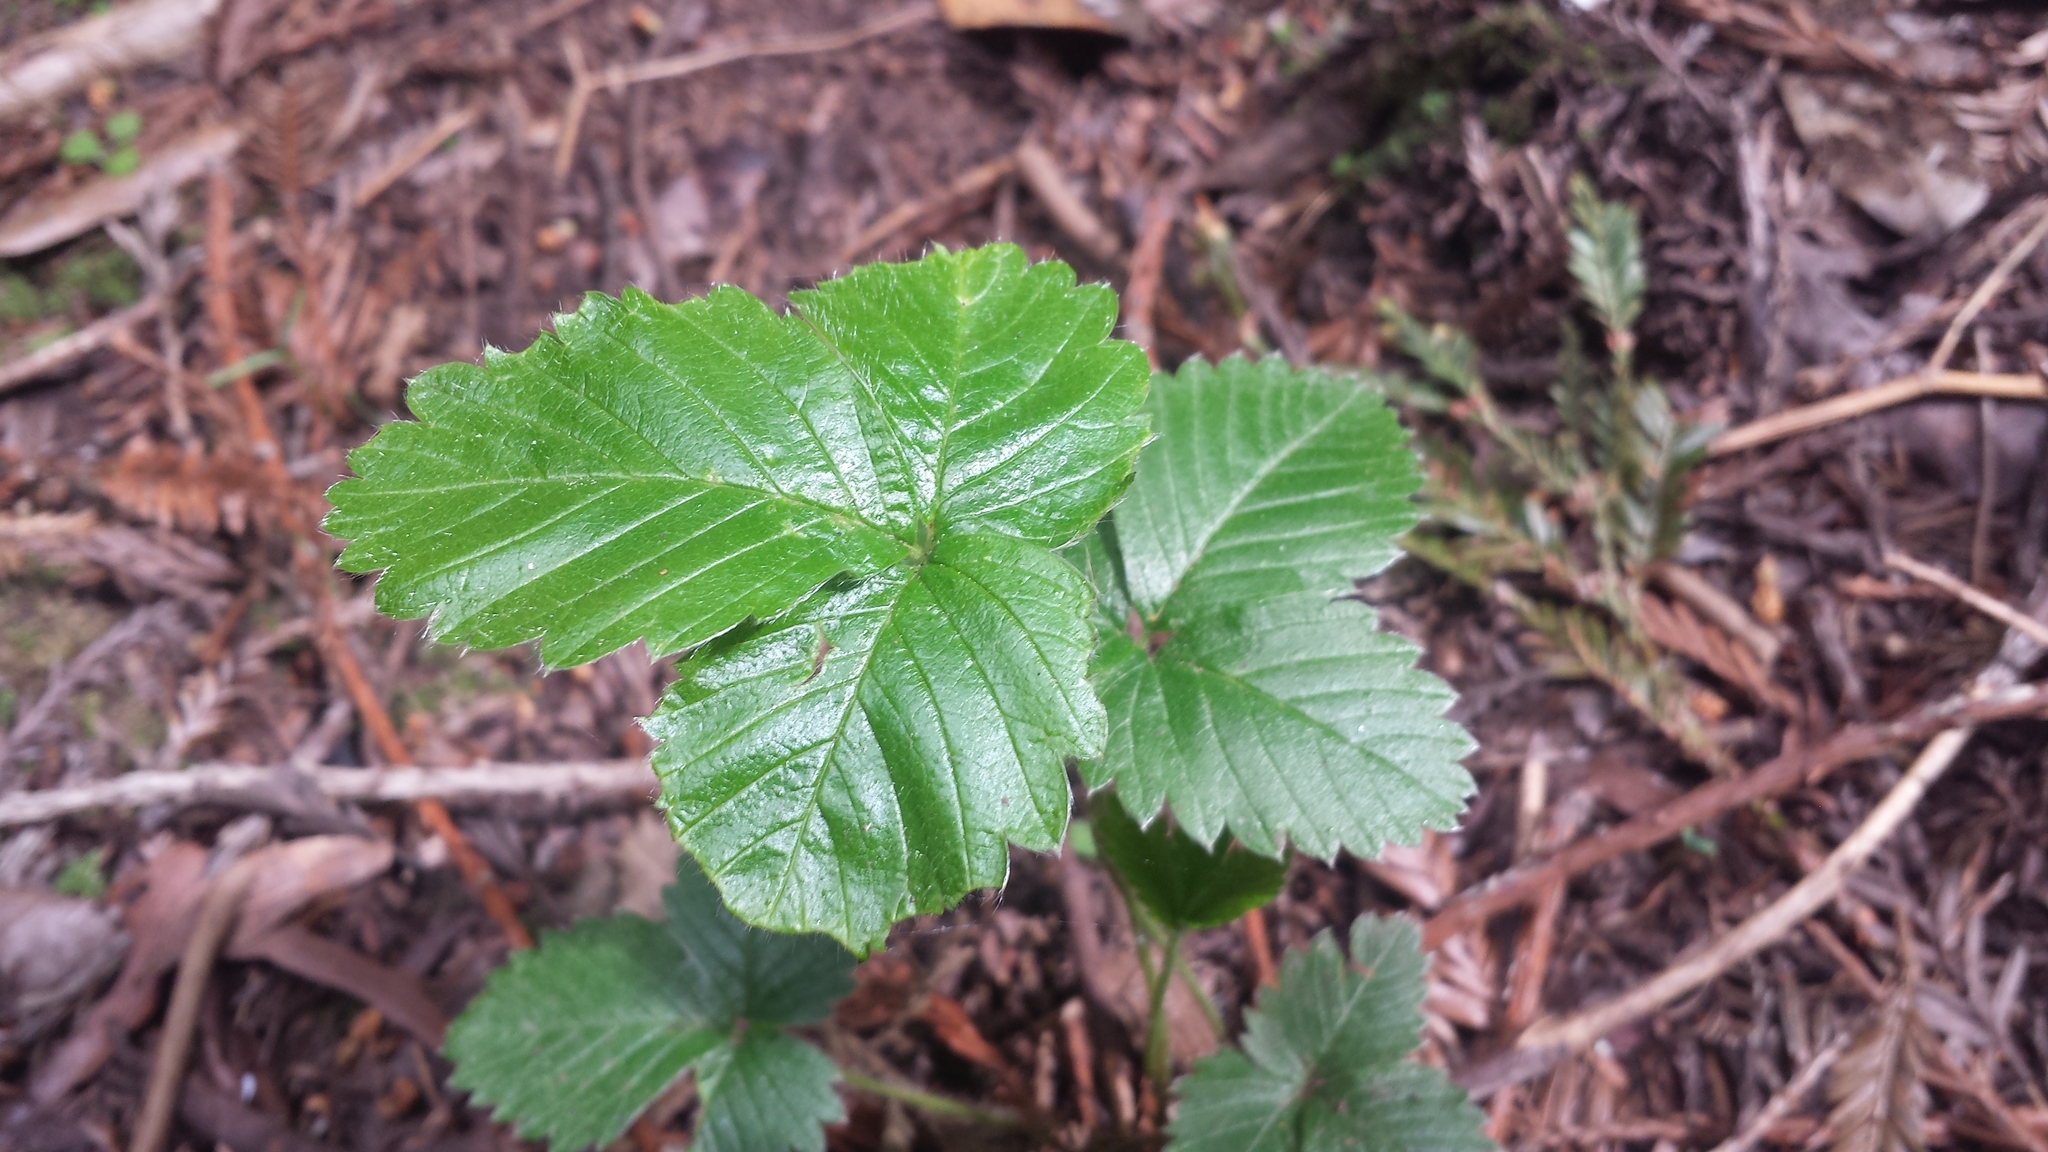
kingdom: Plantae
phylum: Tracheophyta
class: Magnoliopsida
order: Rosales
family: Rosaceae
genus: Fragaria
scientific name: Fragaria vesca
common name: Wild strawberry
